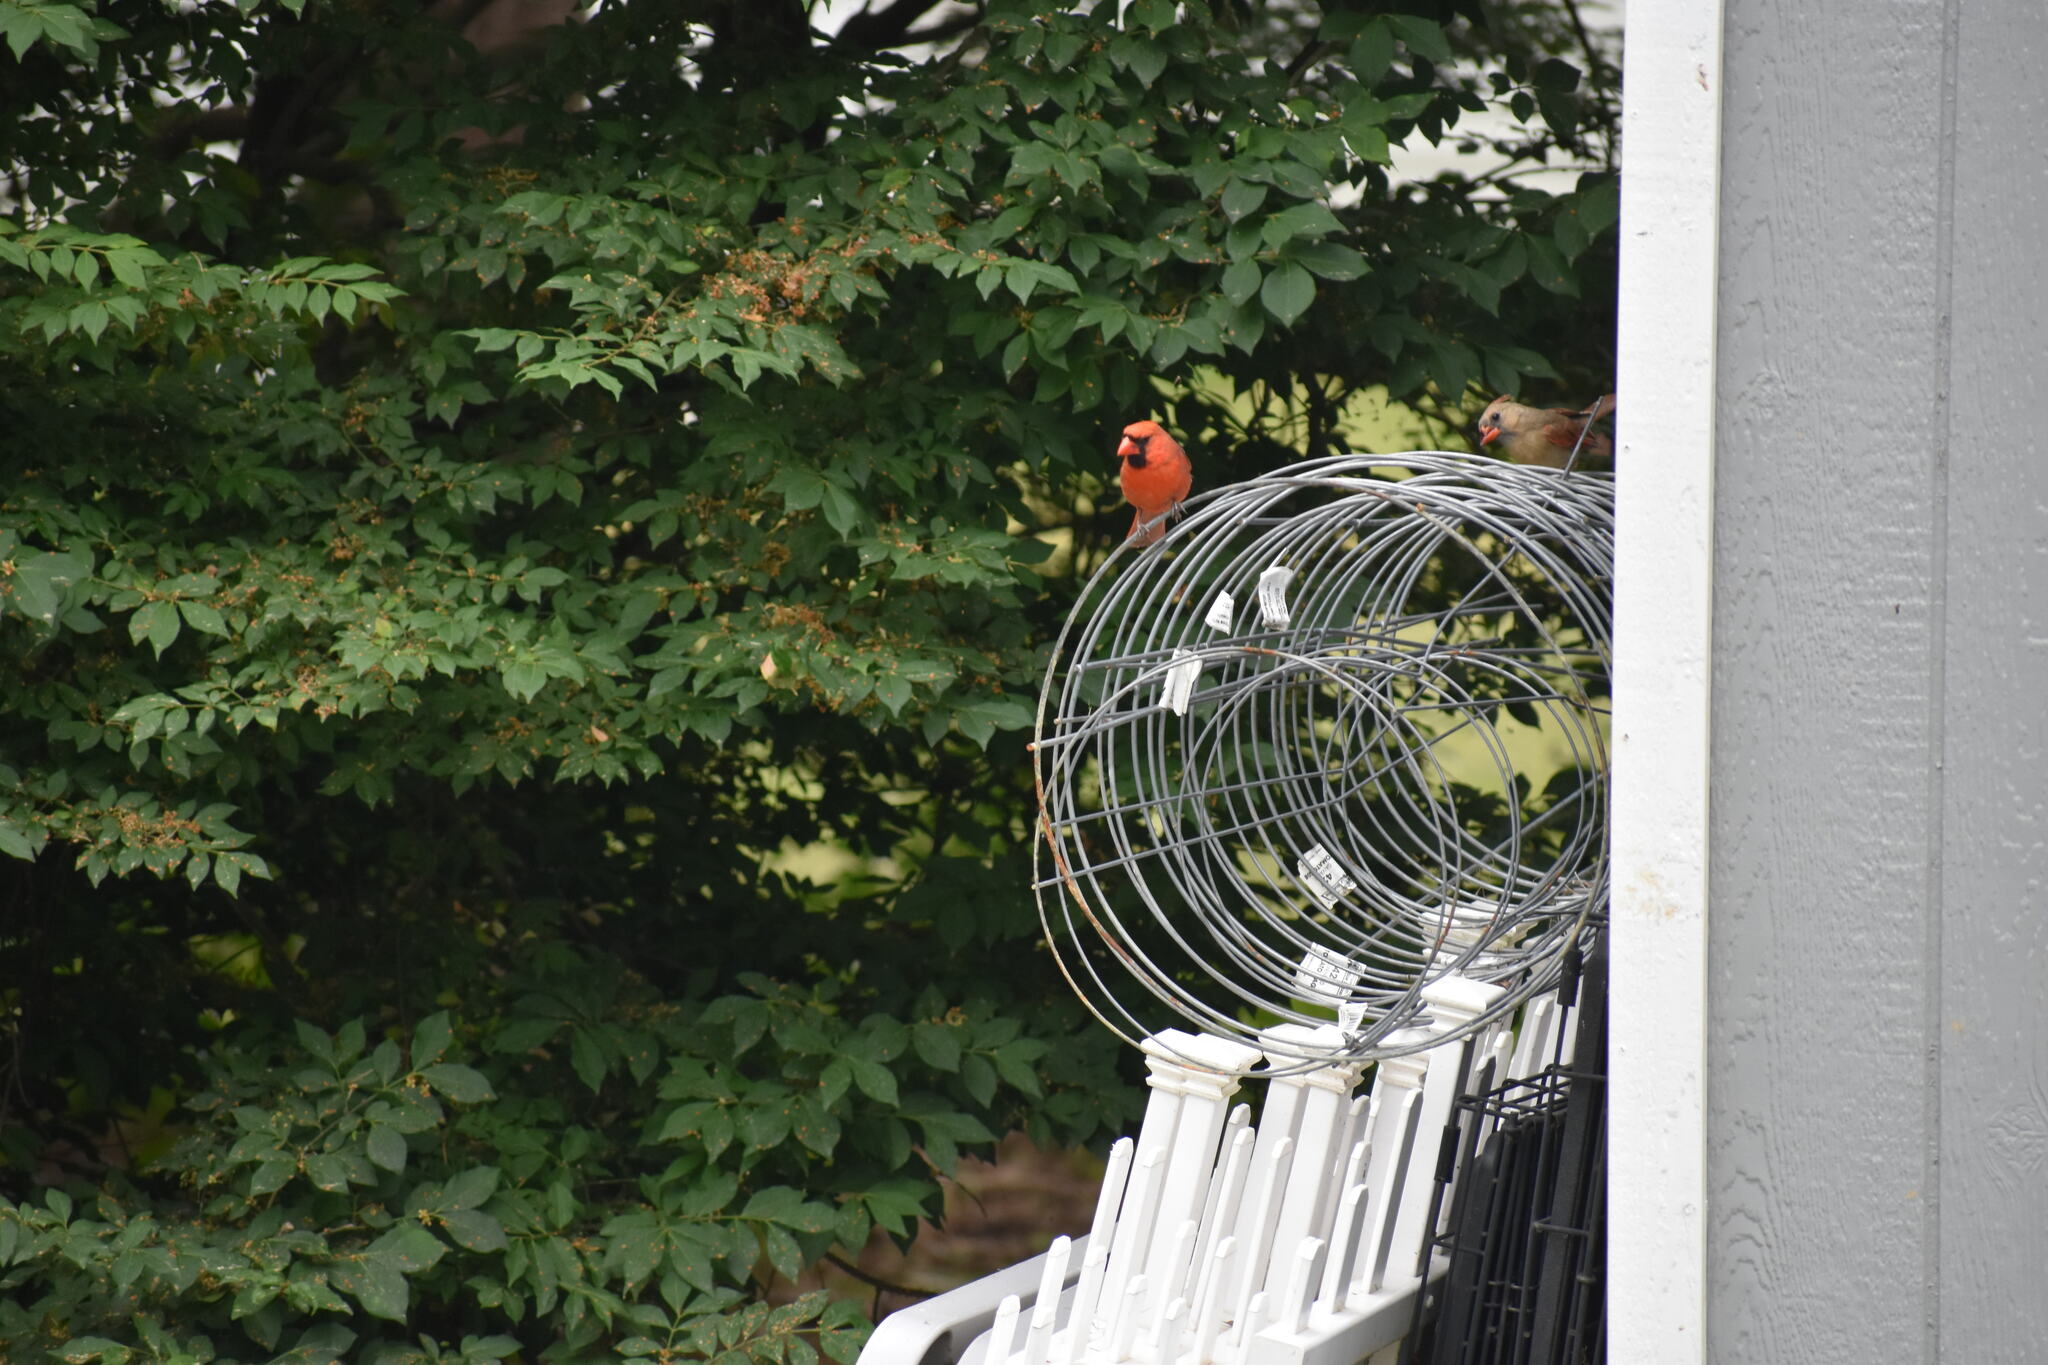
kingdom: Animalia
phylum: Chordata
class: Aves
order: Passeriformes
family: Cardinalidae
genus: Cardinalis
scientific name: Cardinalis cardinalis
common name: Northern cardinal
